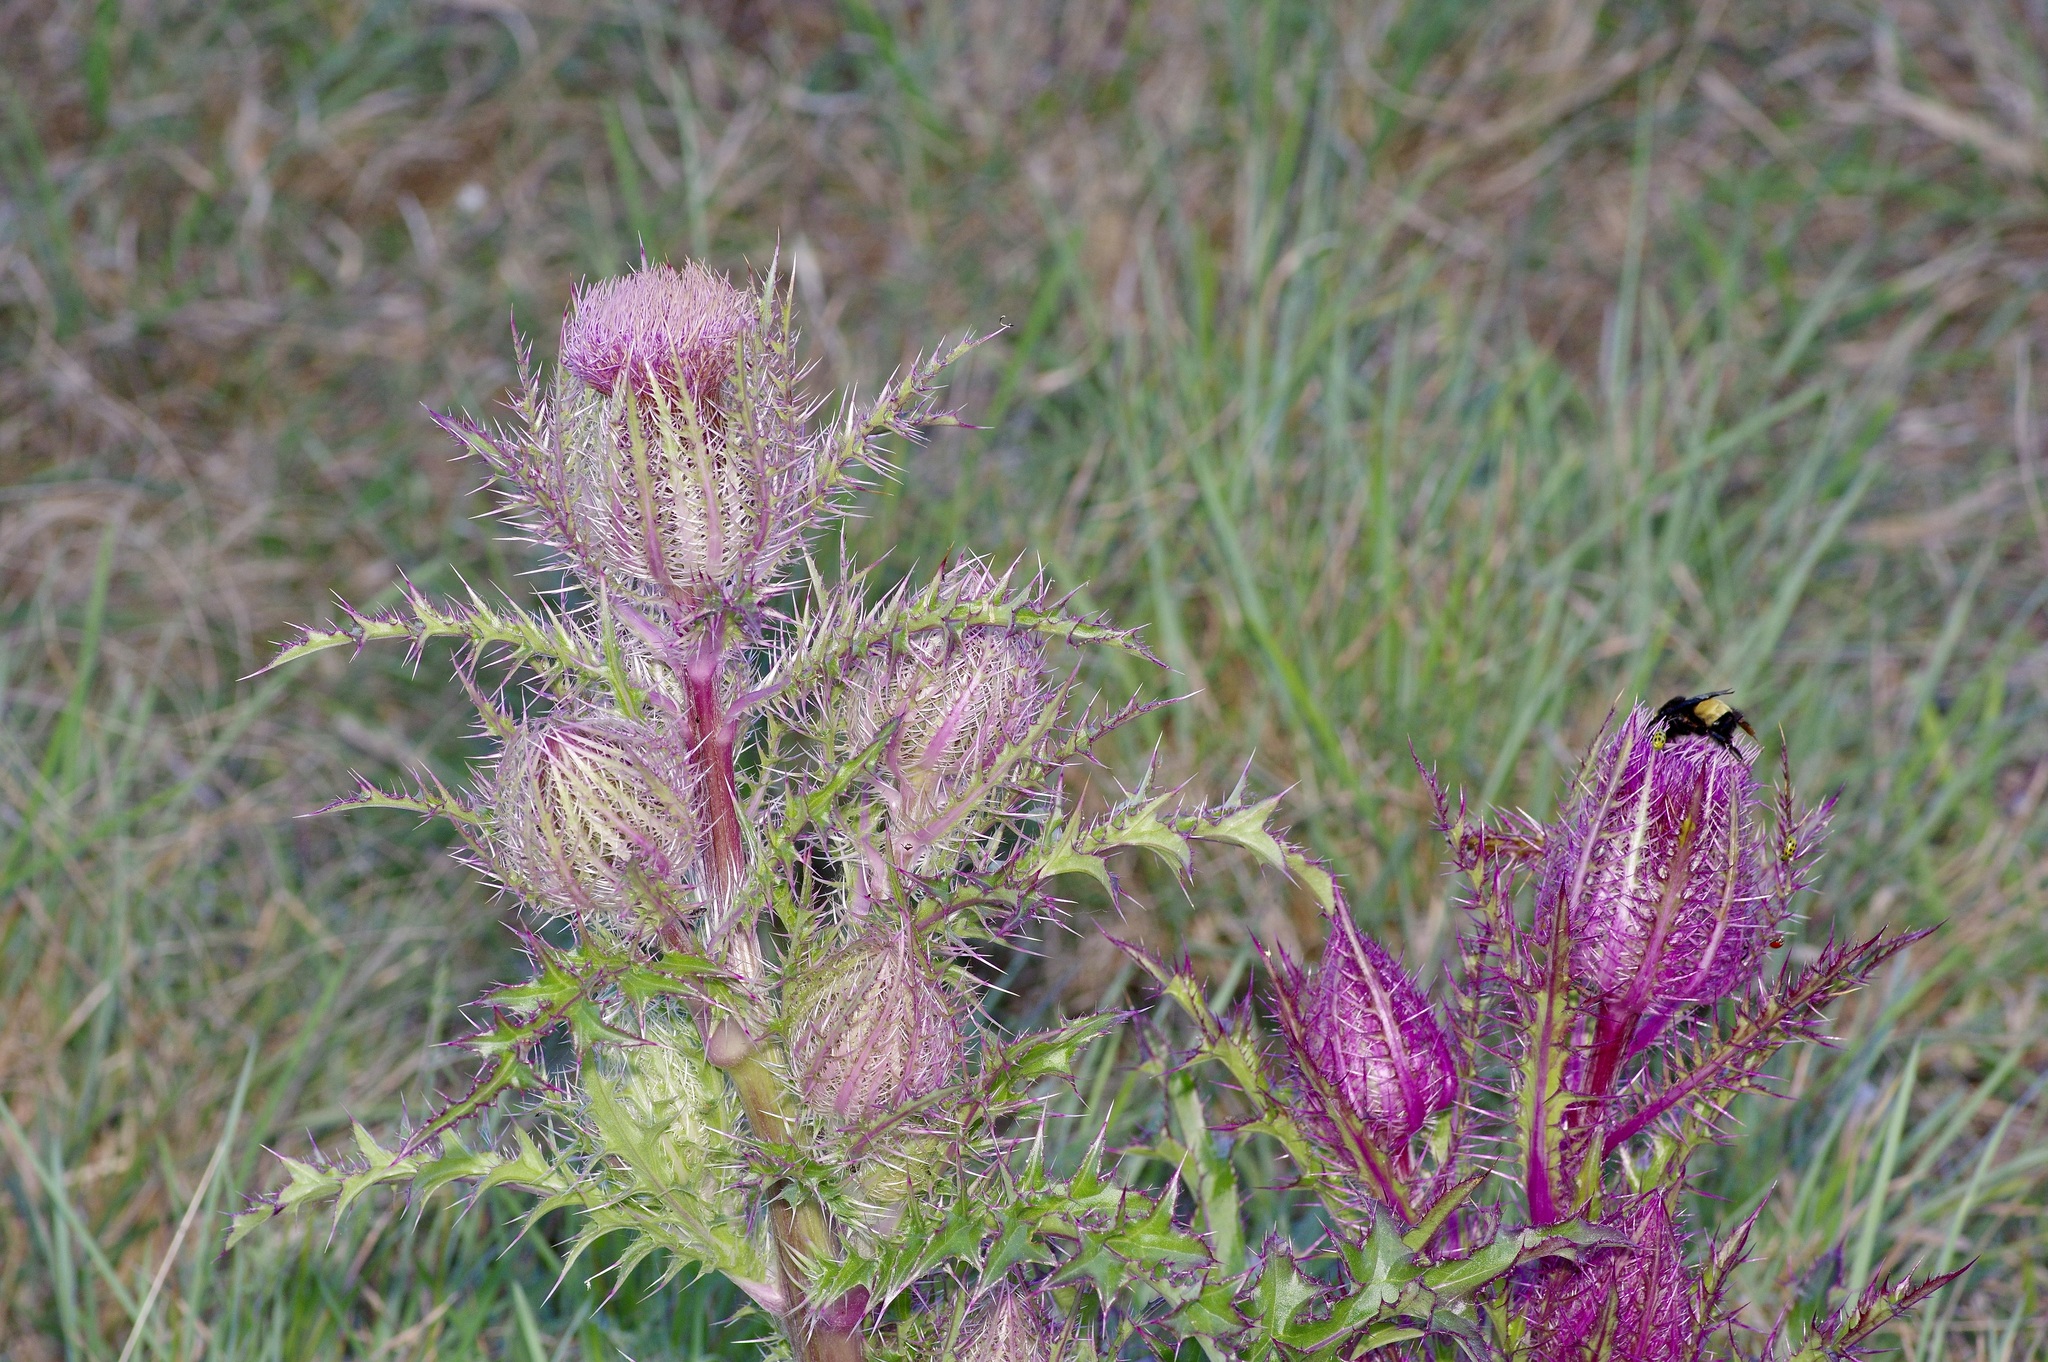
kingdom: Plantae
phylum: Tracheophyta
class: Magnoliopsida
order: Asterales
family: Asteraceae
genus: Cirsium
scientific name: Cirsium horridulum
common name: Bristly thistle
